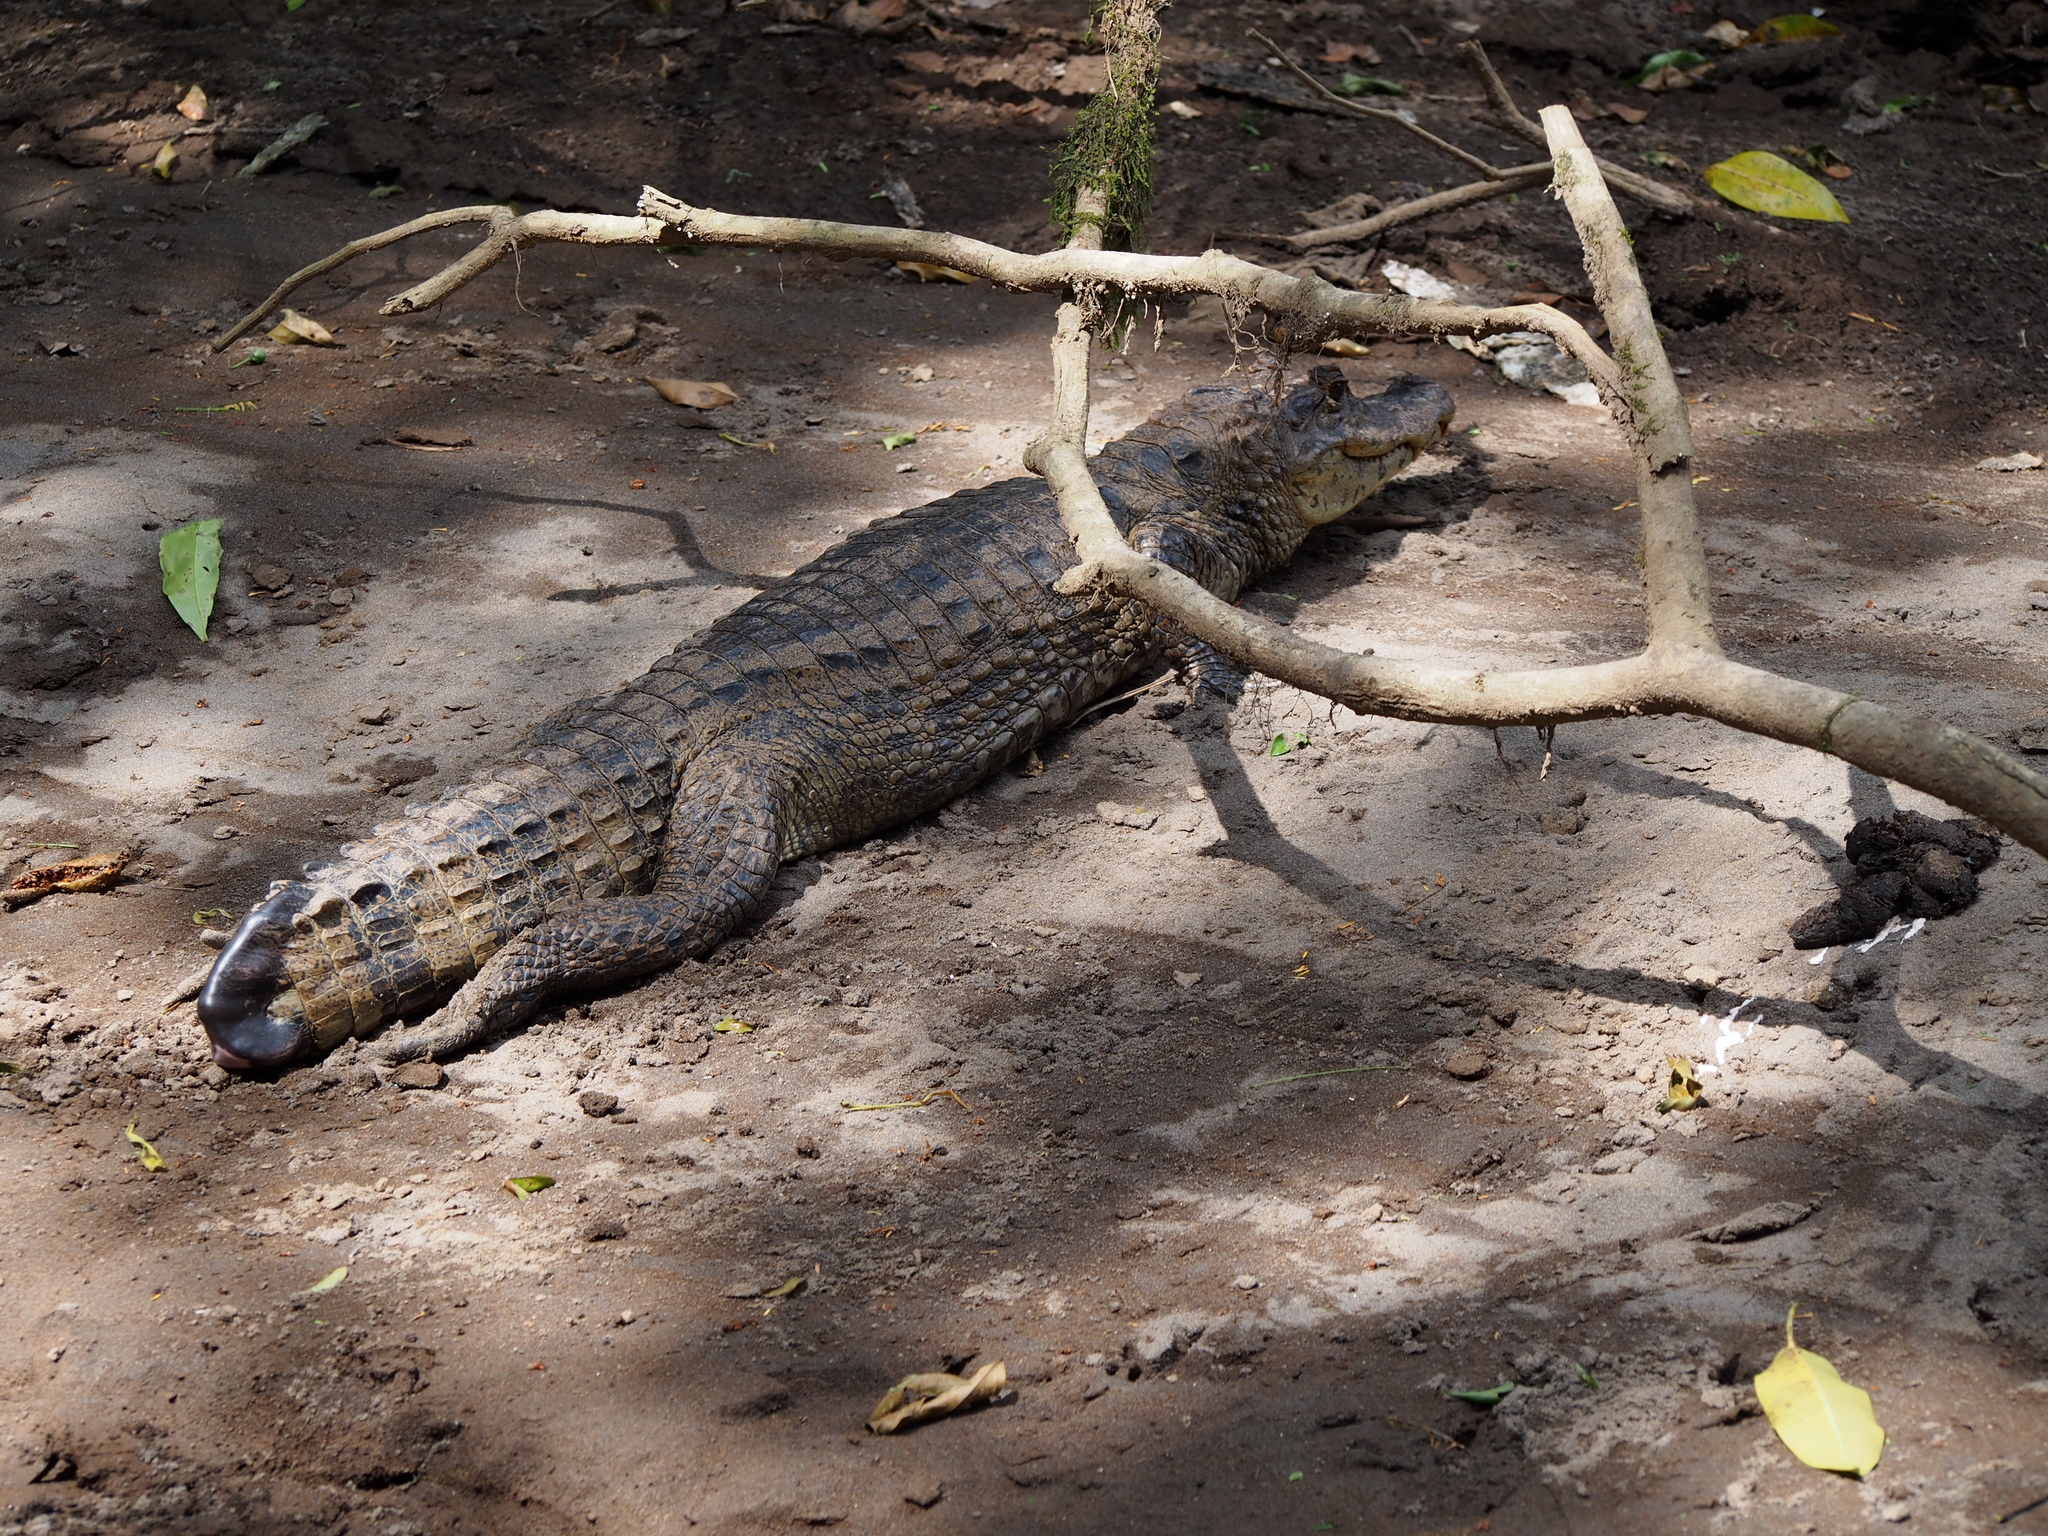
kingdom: Animalia
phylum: Chordata
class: Crocodylia
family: Alligatoridae
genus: Caiman
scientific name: Caiman crocodilus
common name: Common caiman
